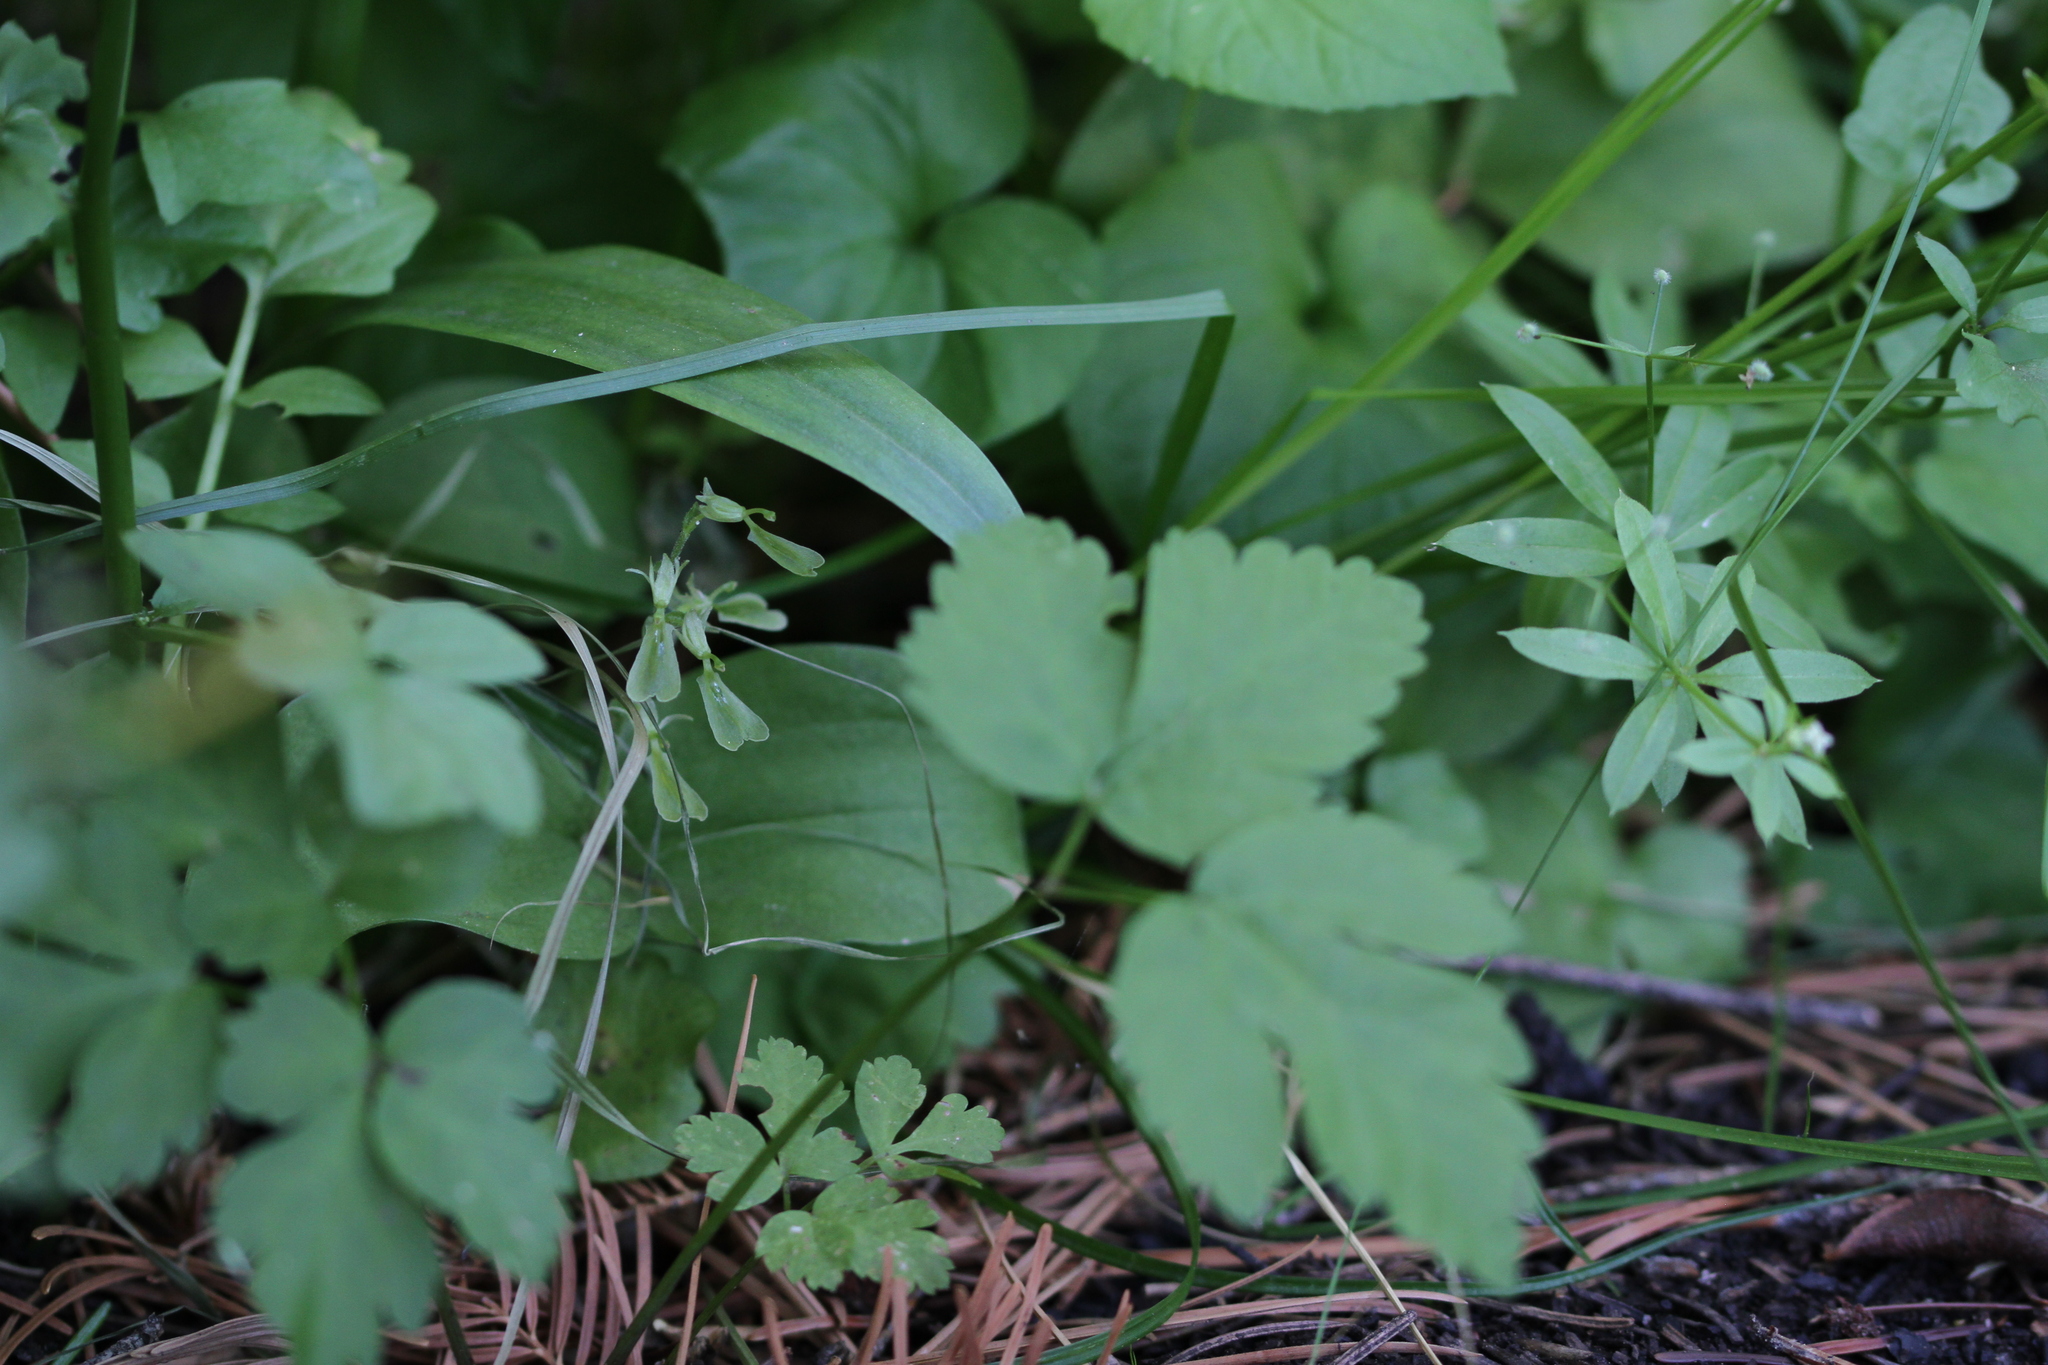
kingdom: Plantae
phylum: Tracheophyta
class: Liliopsida
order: Asparagales
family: Orchidaceae
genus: Neottia
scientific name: Neottia convallarioides
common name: Broadleaf twayblade
